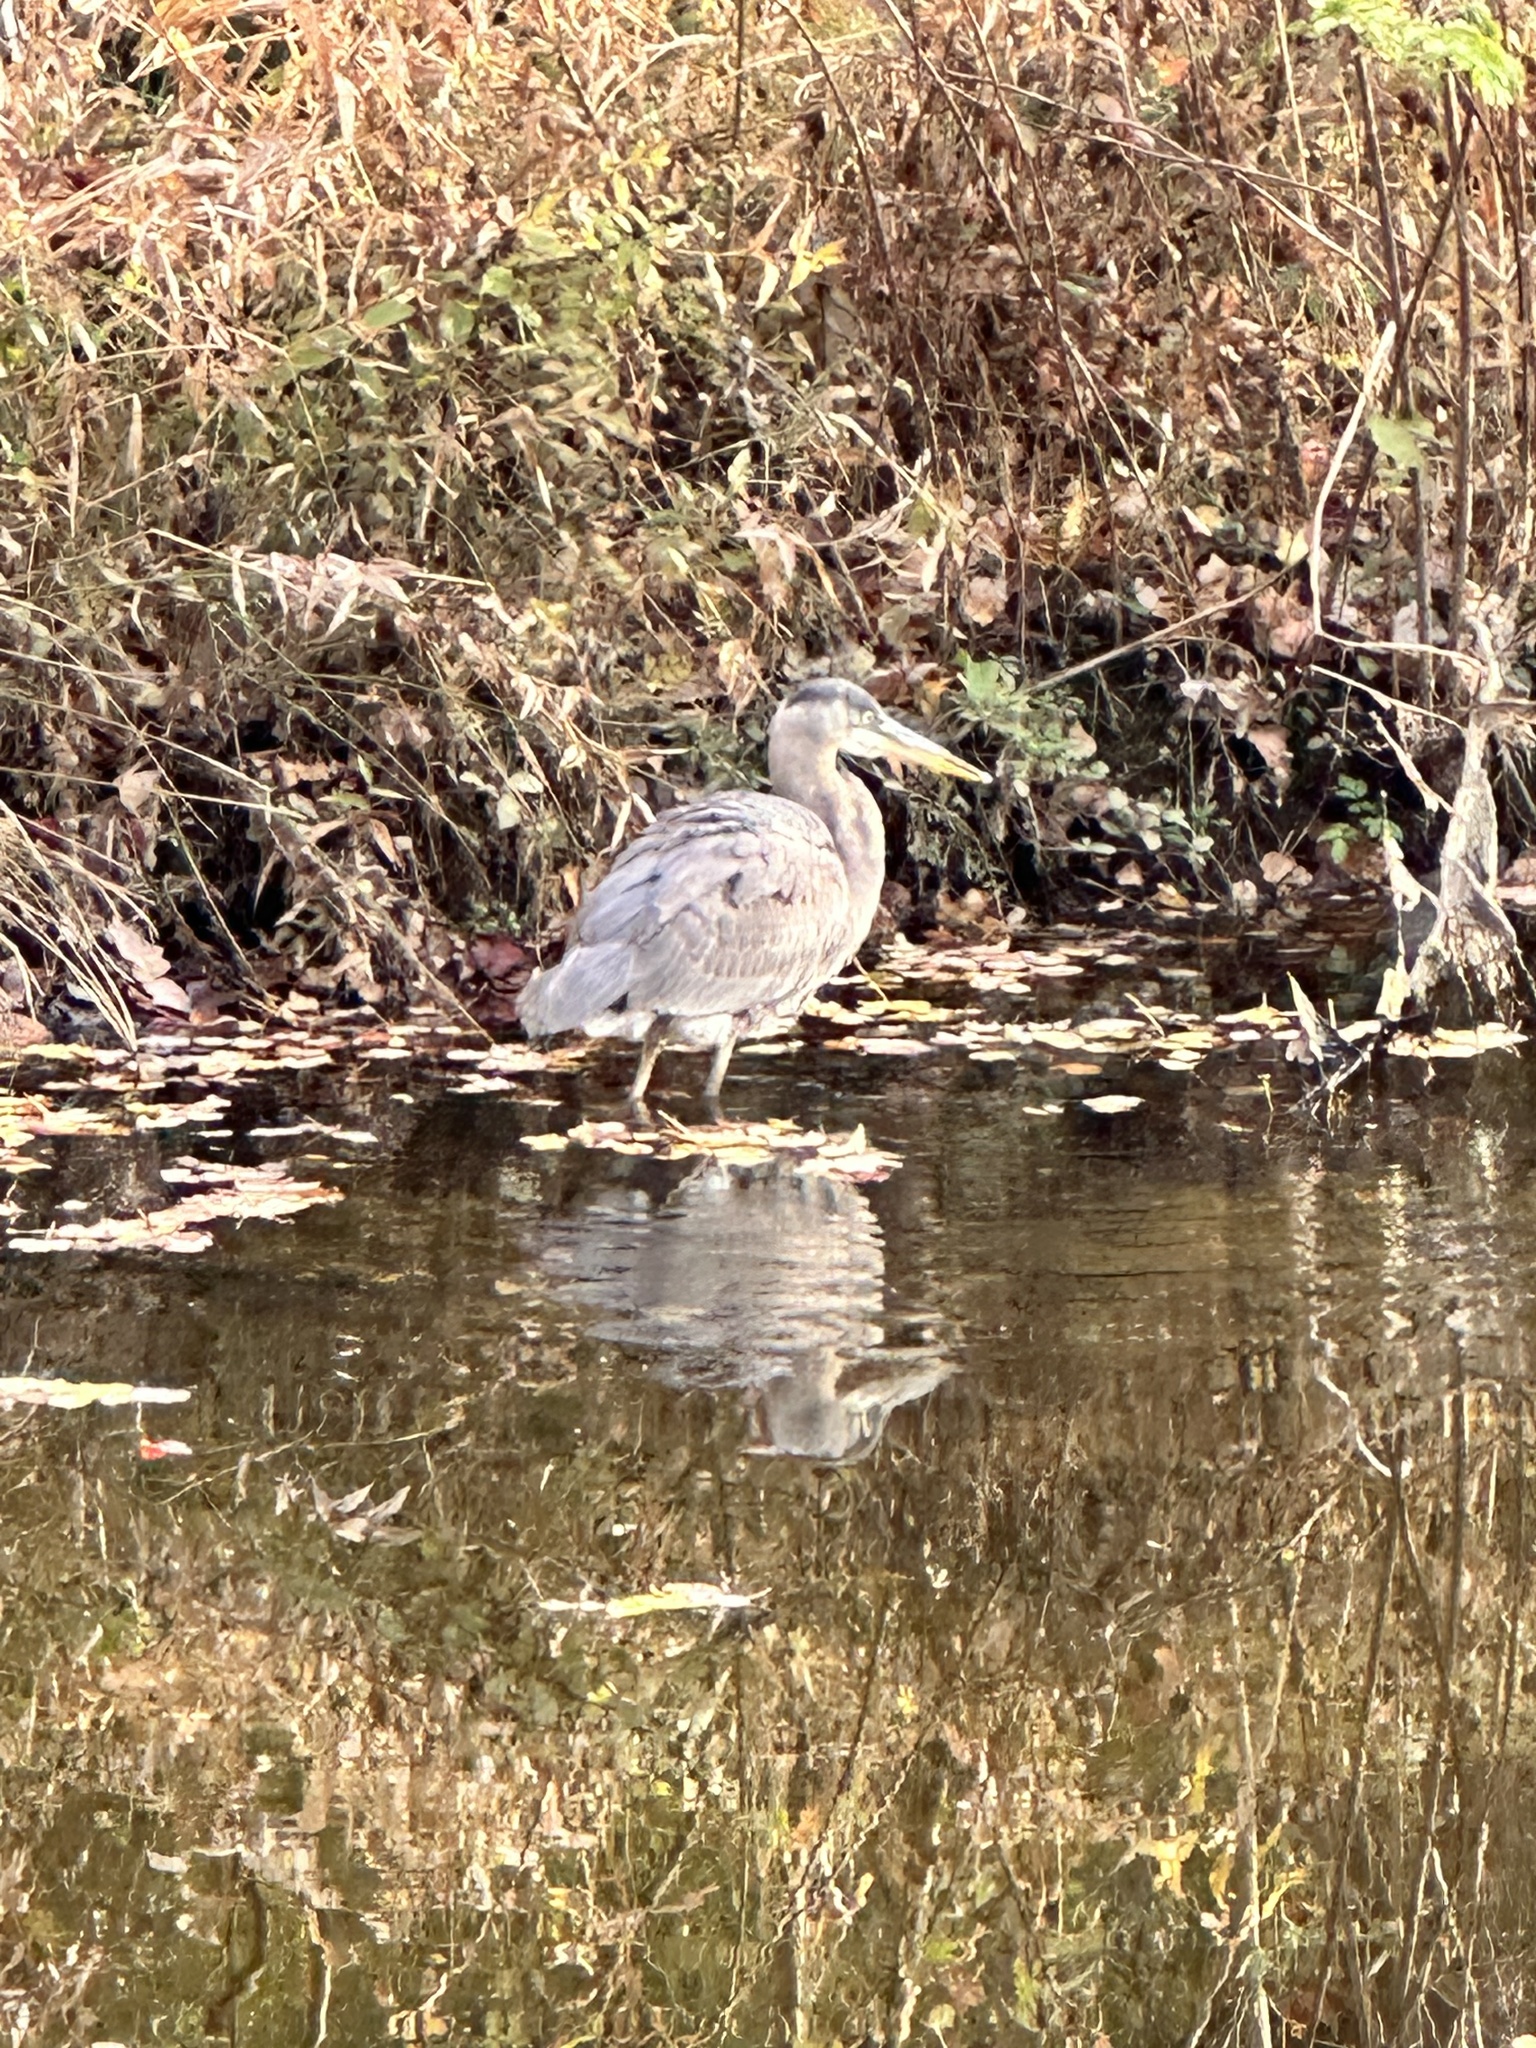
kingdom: Animalia
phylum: Chordata
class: Aves
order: Pelecaniformes
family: Ardeidae
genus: Ardea
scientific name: Ardea herodias
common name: Great blue heron
